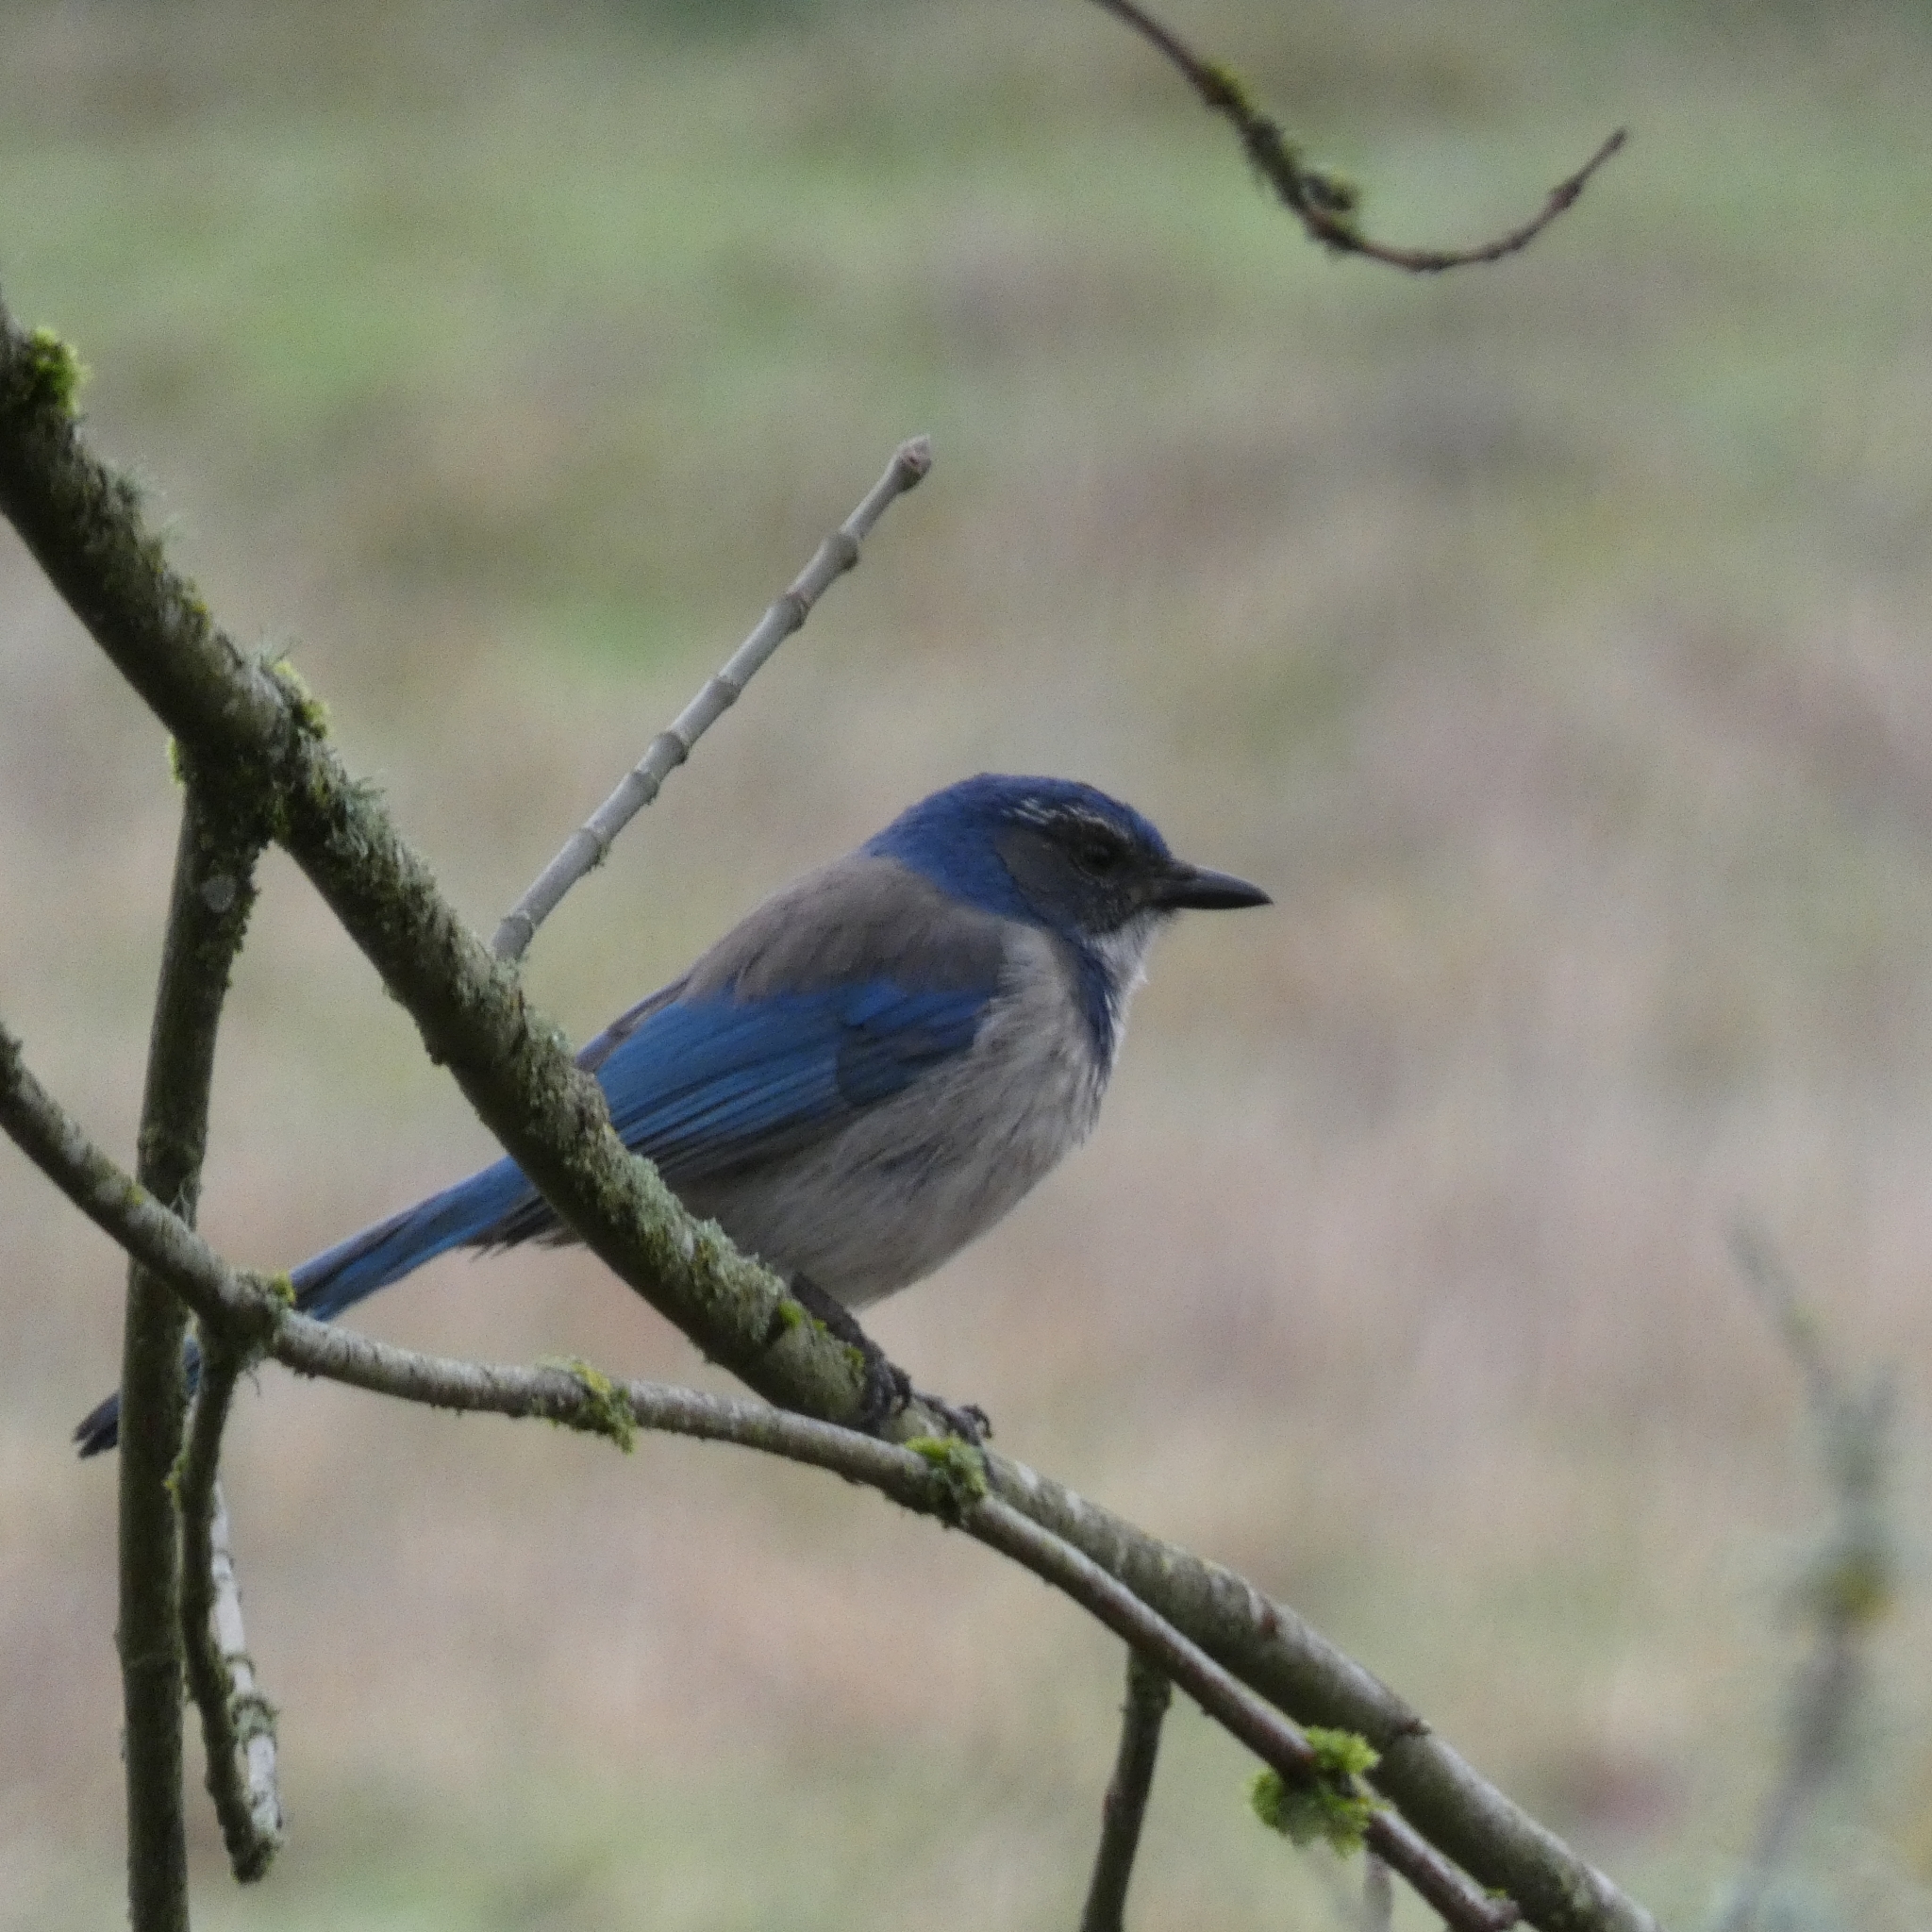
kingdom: Animalia
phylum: Chordata
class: Aves
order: Passeriformes
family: Corvidae
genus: Aphelocoma
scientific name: Aphelocoma californica
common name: California scrub-jay
